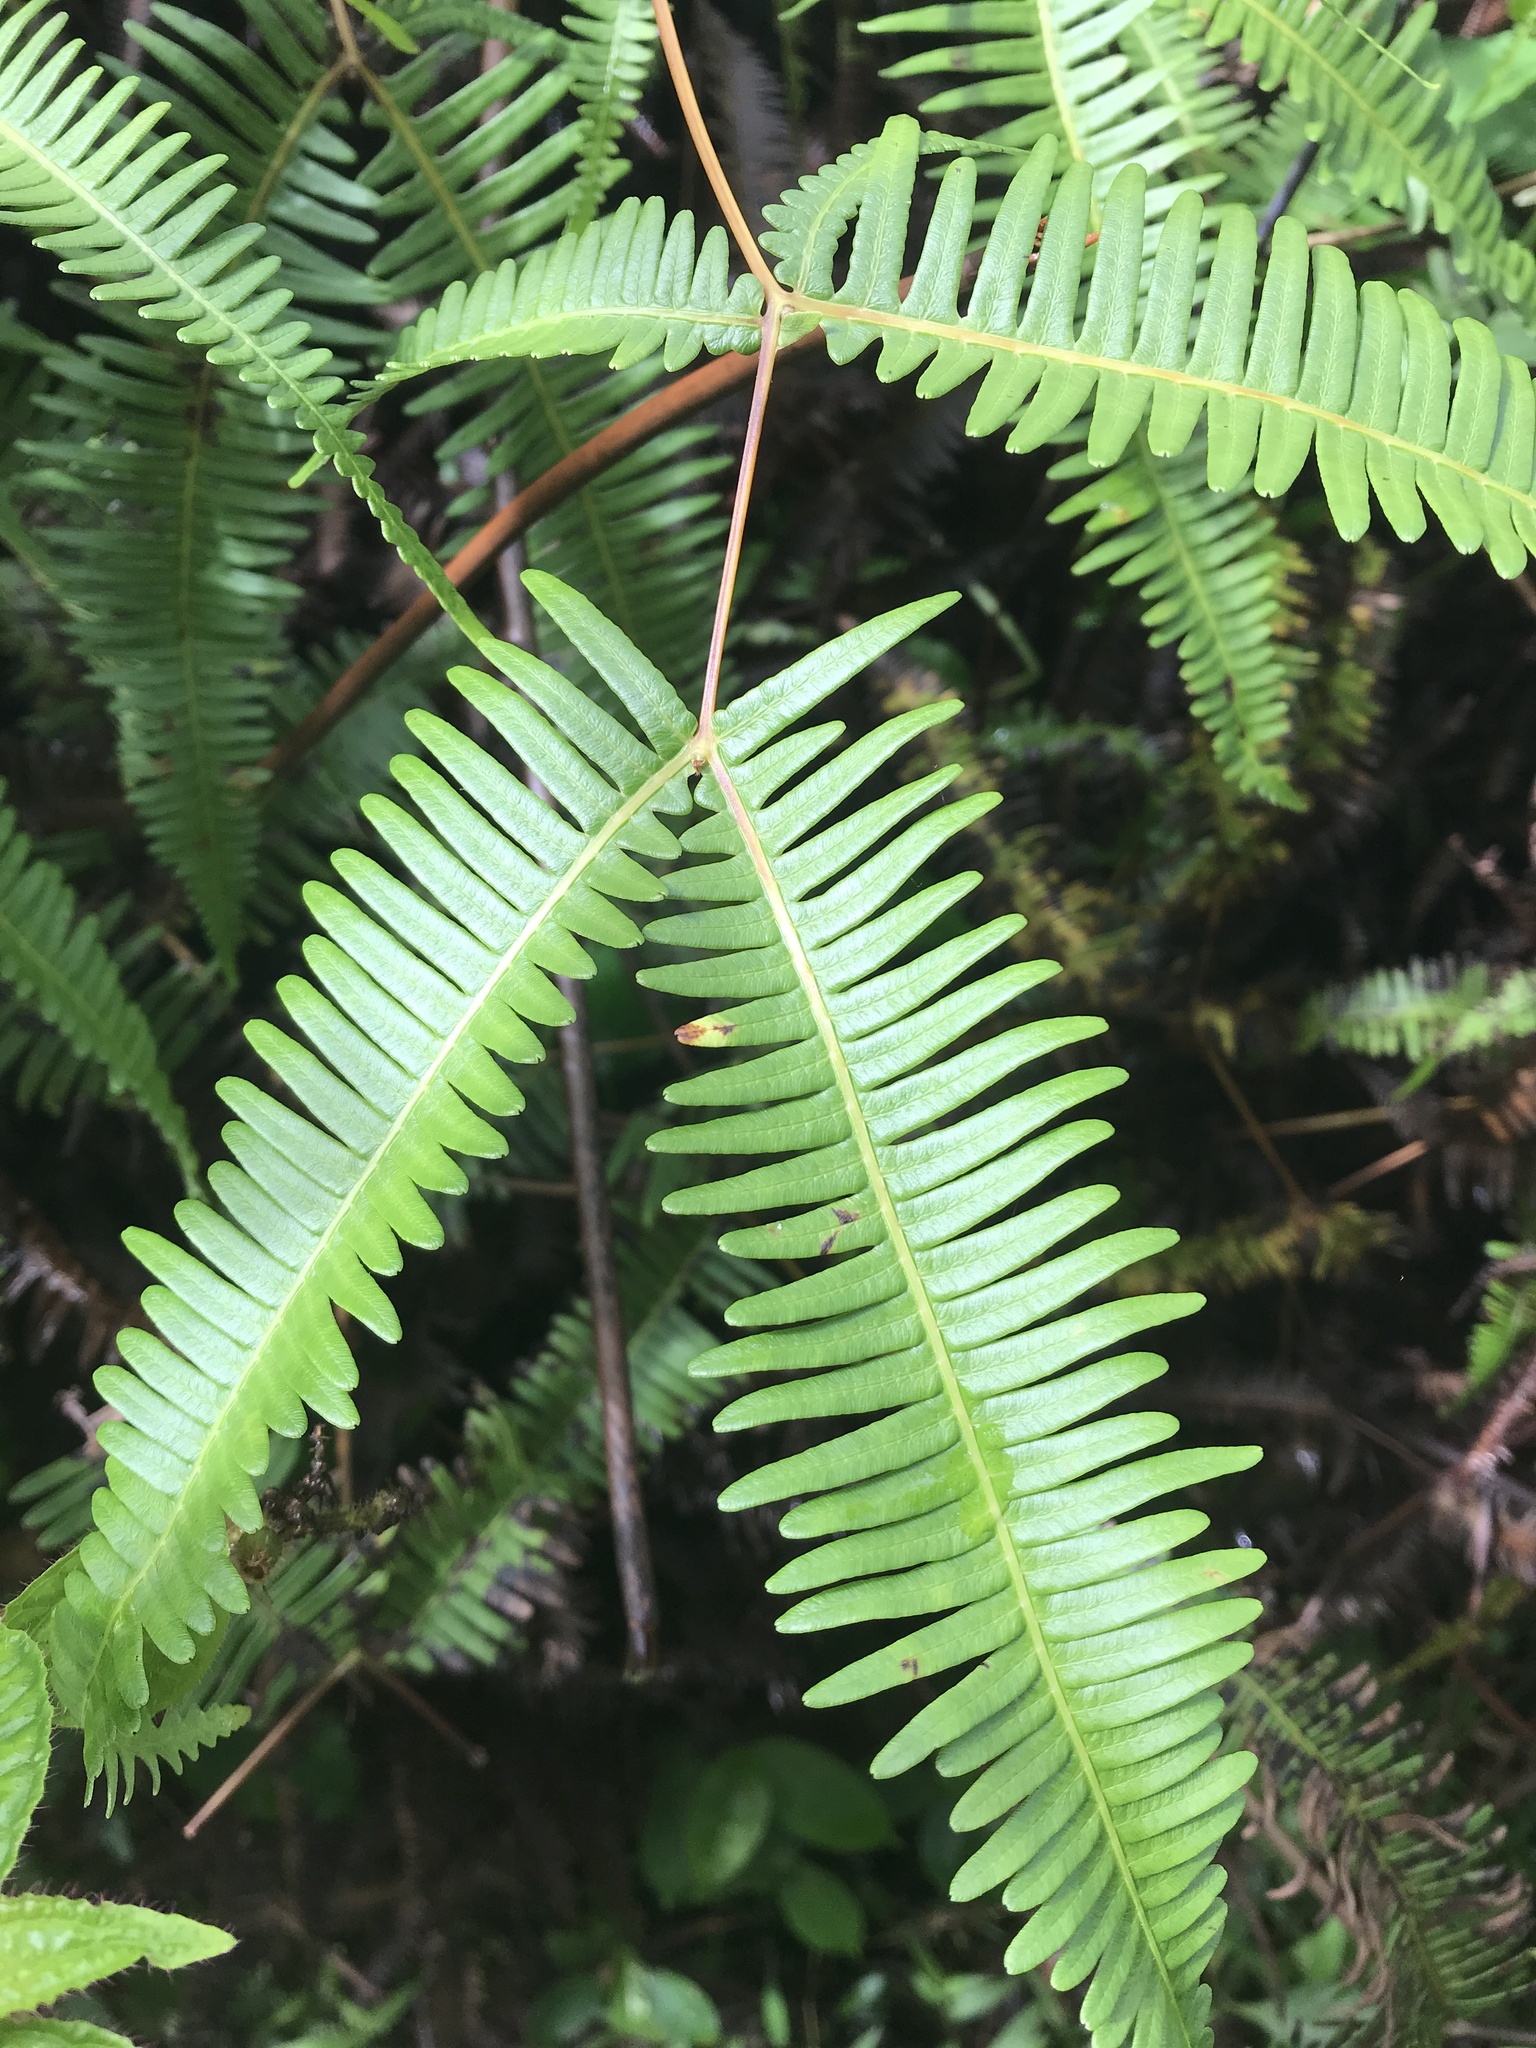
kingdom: Plantae
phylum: Tracheophyta
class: Polypodiopsida
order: Gleicheniales
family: Gleicheniaceae
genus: Dicranopteris
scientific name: Dicranopteris linearis
